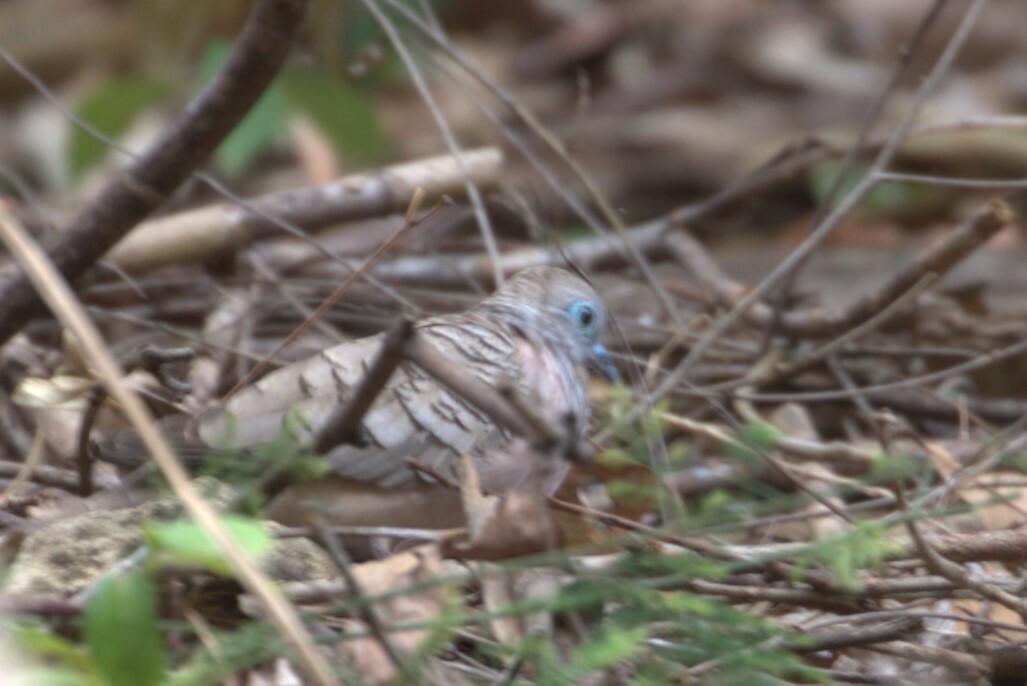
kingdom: Animalia
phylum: Chordata
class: Aves
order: Columbiformes
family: Columbidae
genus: Geopelia
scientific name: Geopelia placida
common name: Peaceful dove
